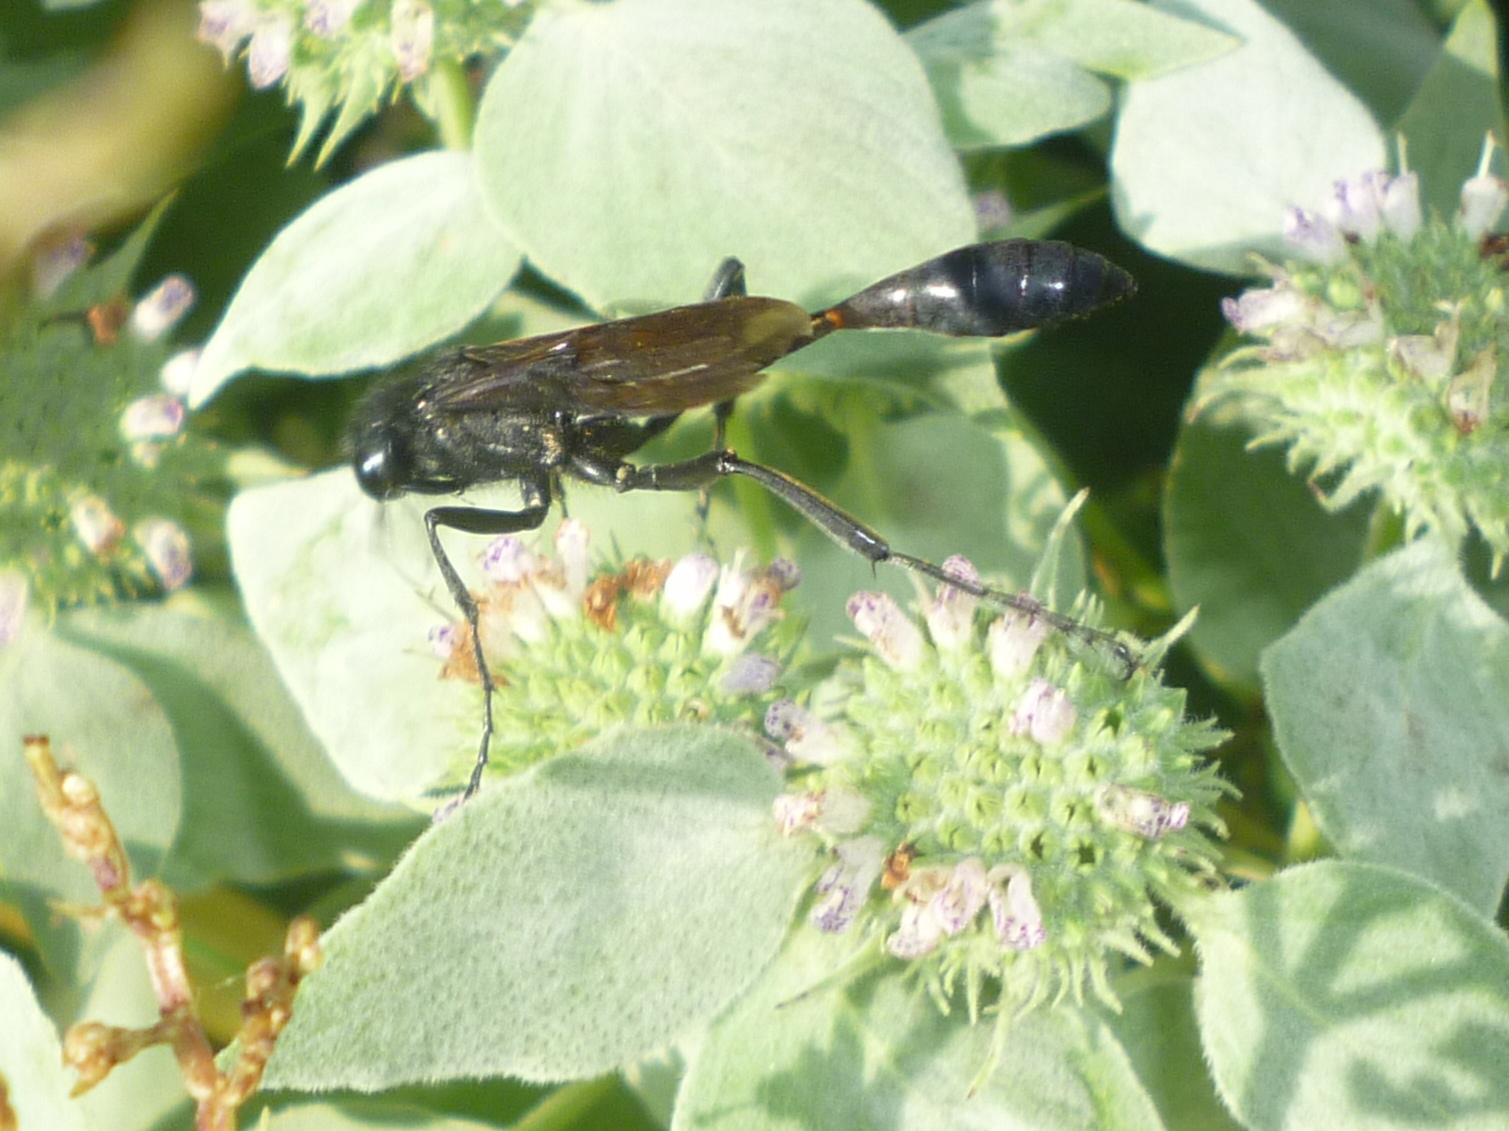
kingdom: Animalia
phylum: Arthropoda
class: Insecta
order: Hymenoptera
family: Sphecidae
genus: Ammophila
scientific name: Ammophila nigricans
